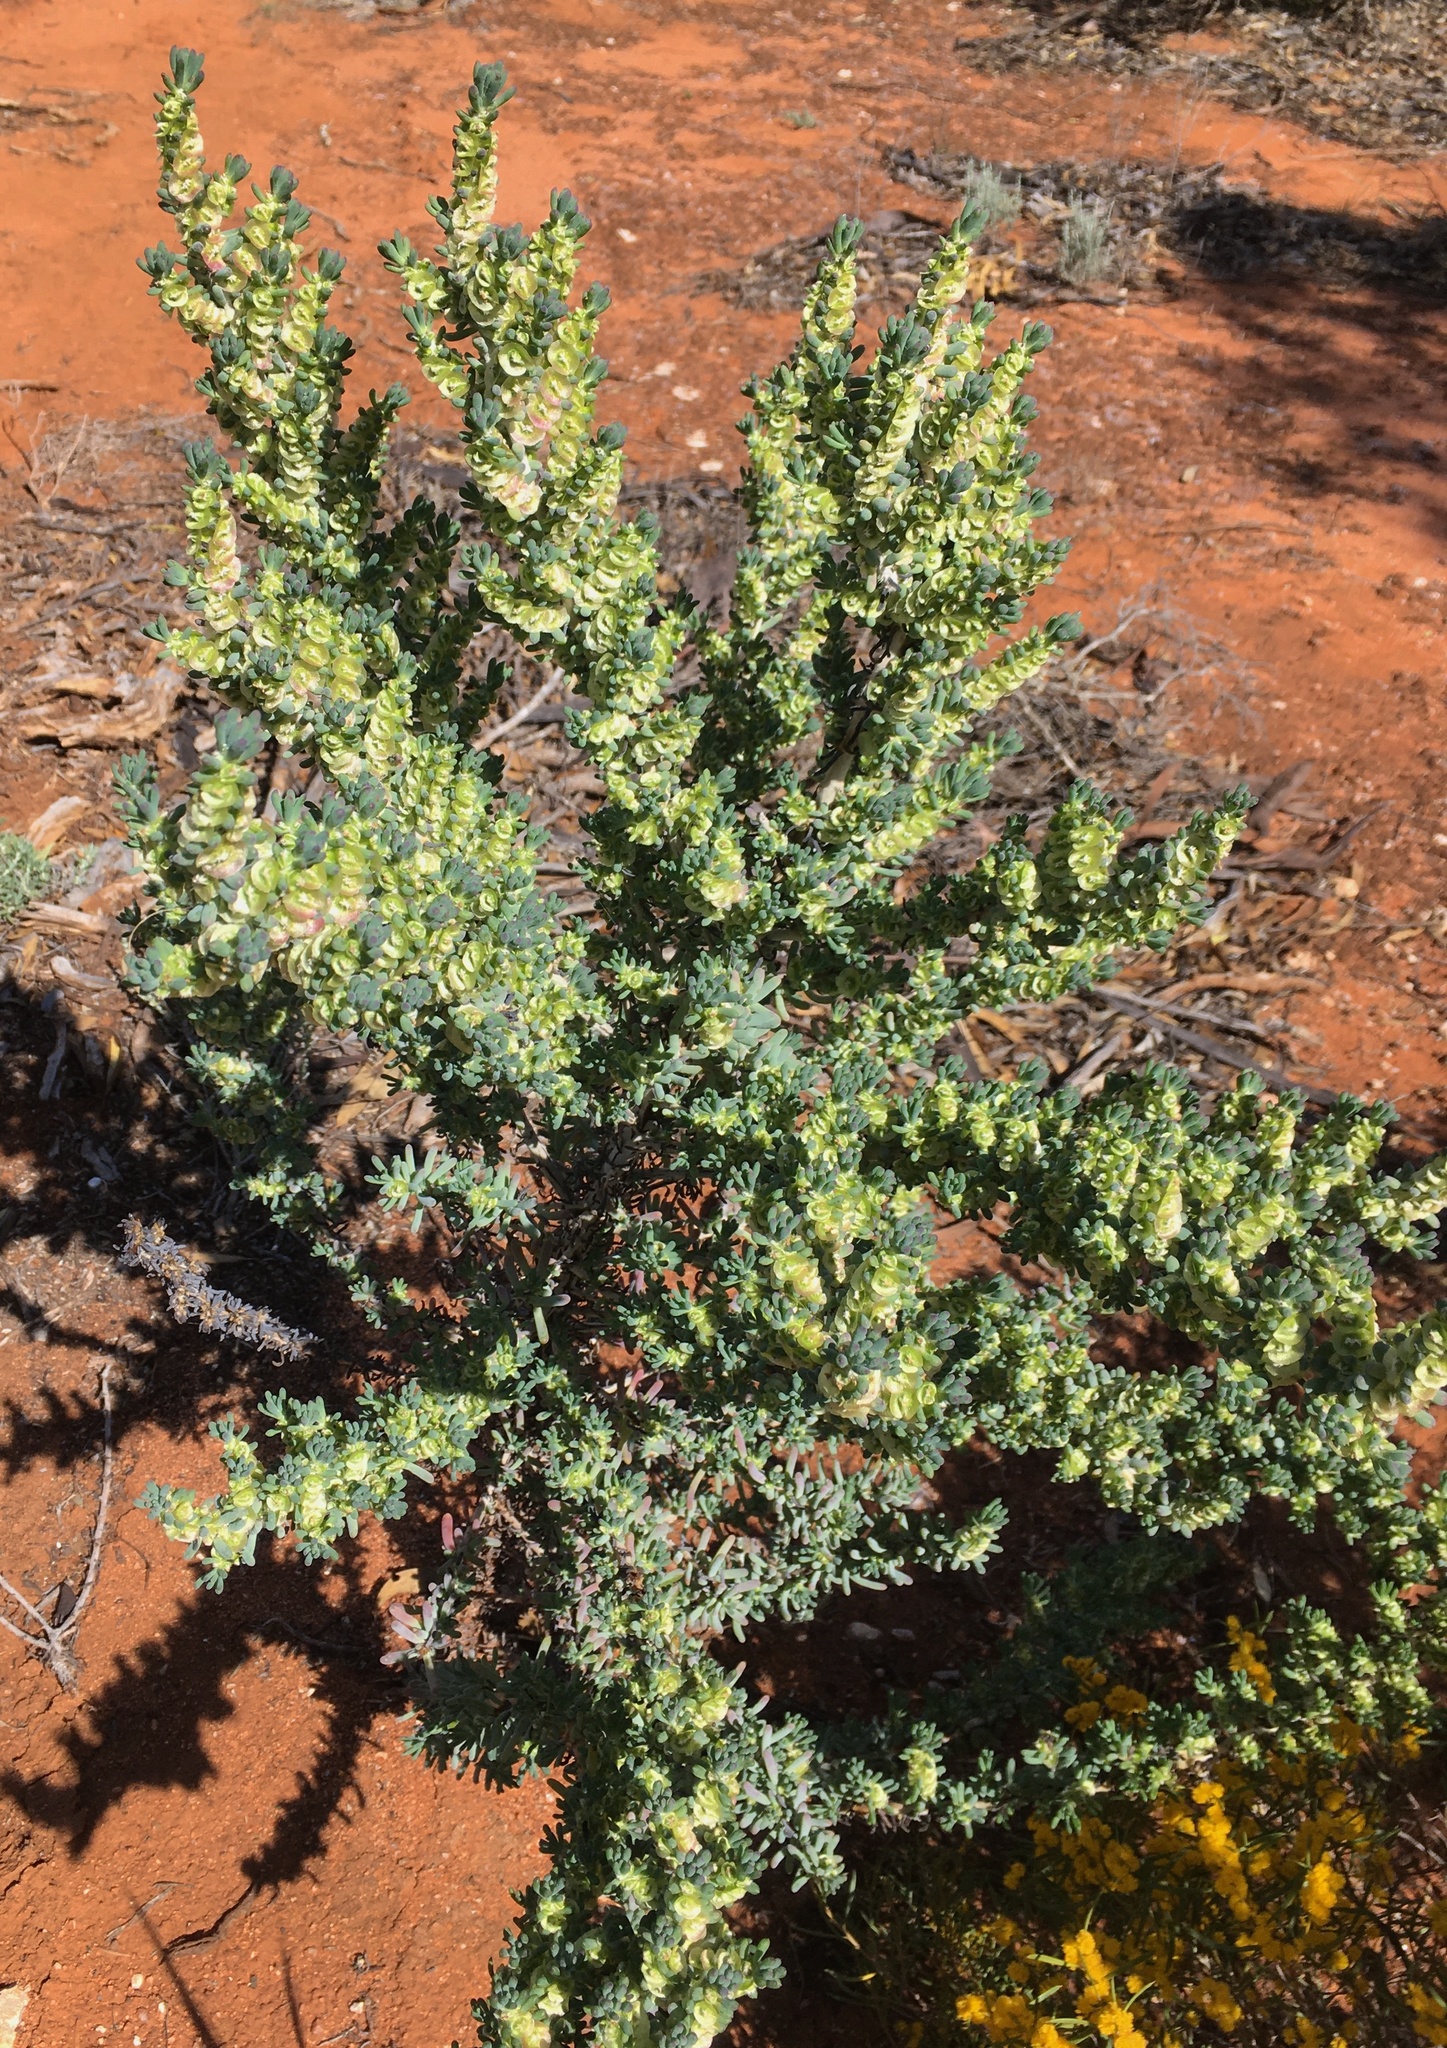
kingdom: Plantae
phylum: Tracheophyta
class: Magnoliopsida
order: Caryophyllales
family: Amaranthaceae
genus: Maireana
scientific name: Maireana pentatropis
